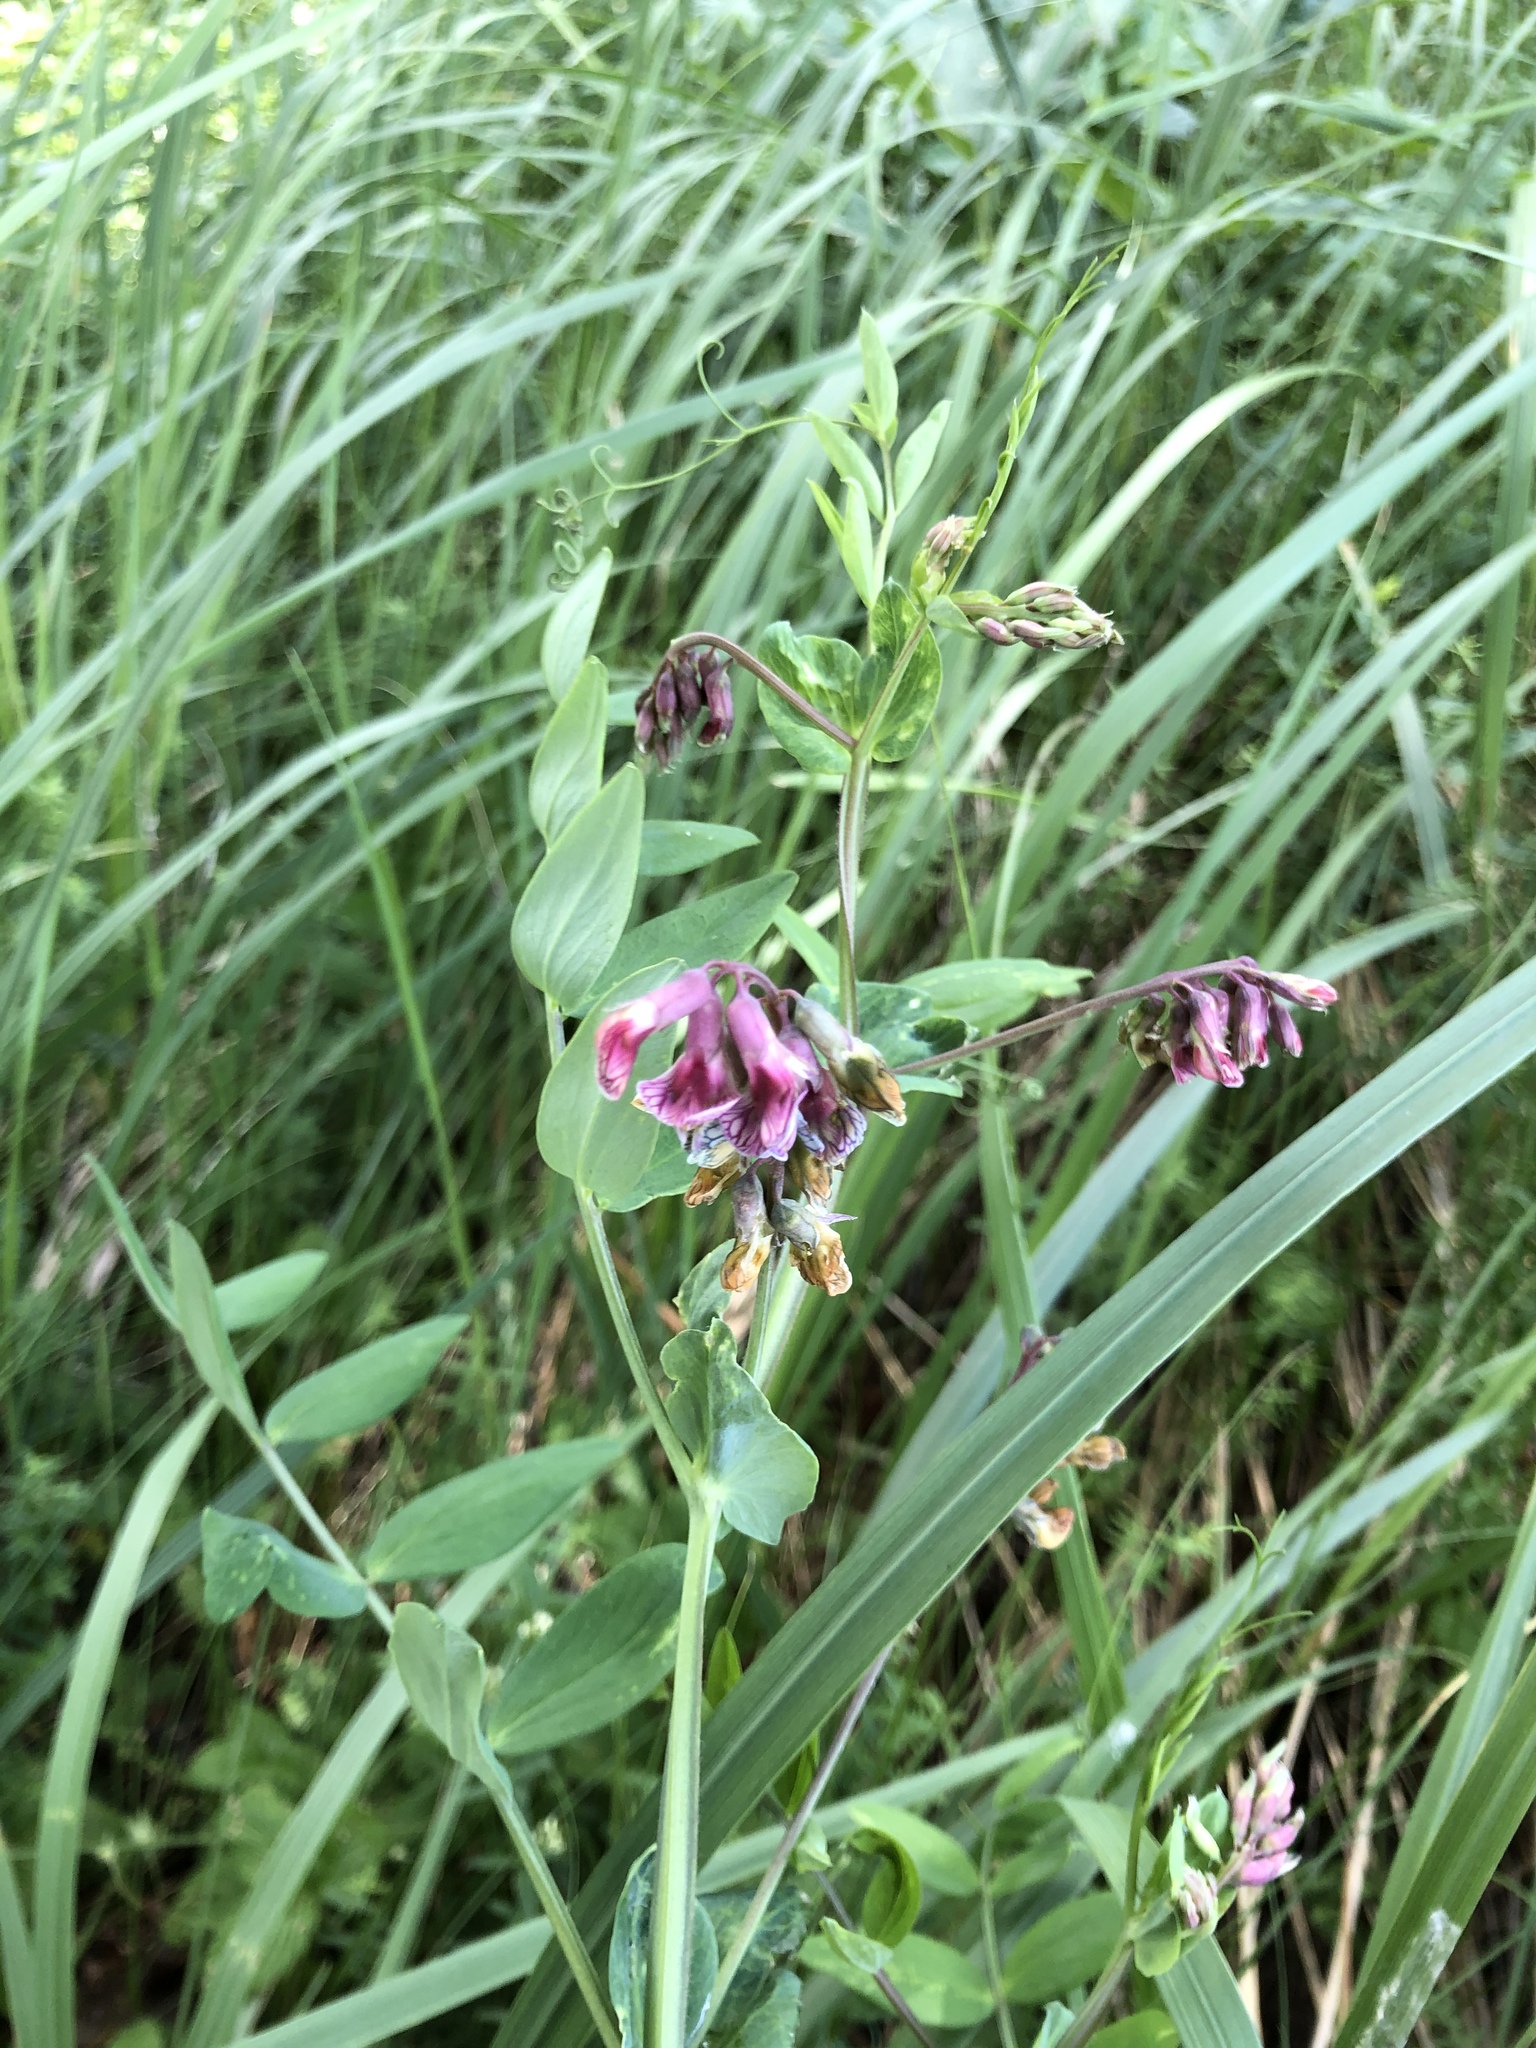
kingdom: Plantae
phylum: Tracheophyta
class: Magnoliopsida
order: Fabales
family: Fabaceae
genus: Lathyrus
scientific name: Lathyrus pisiformis
